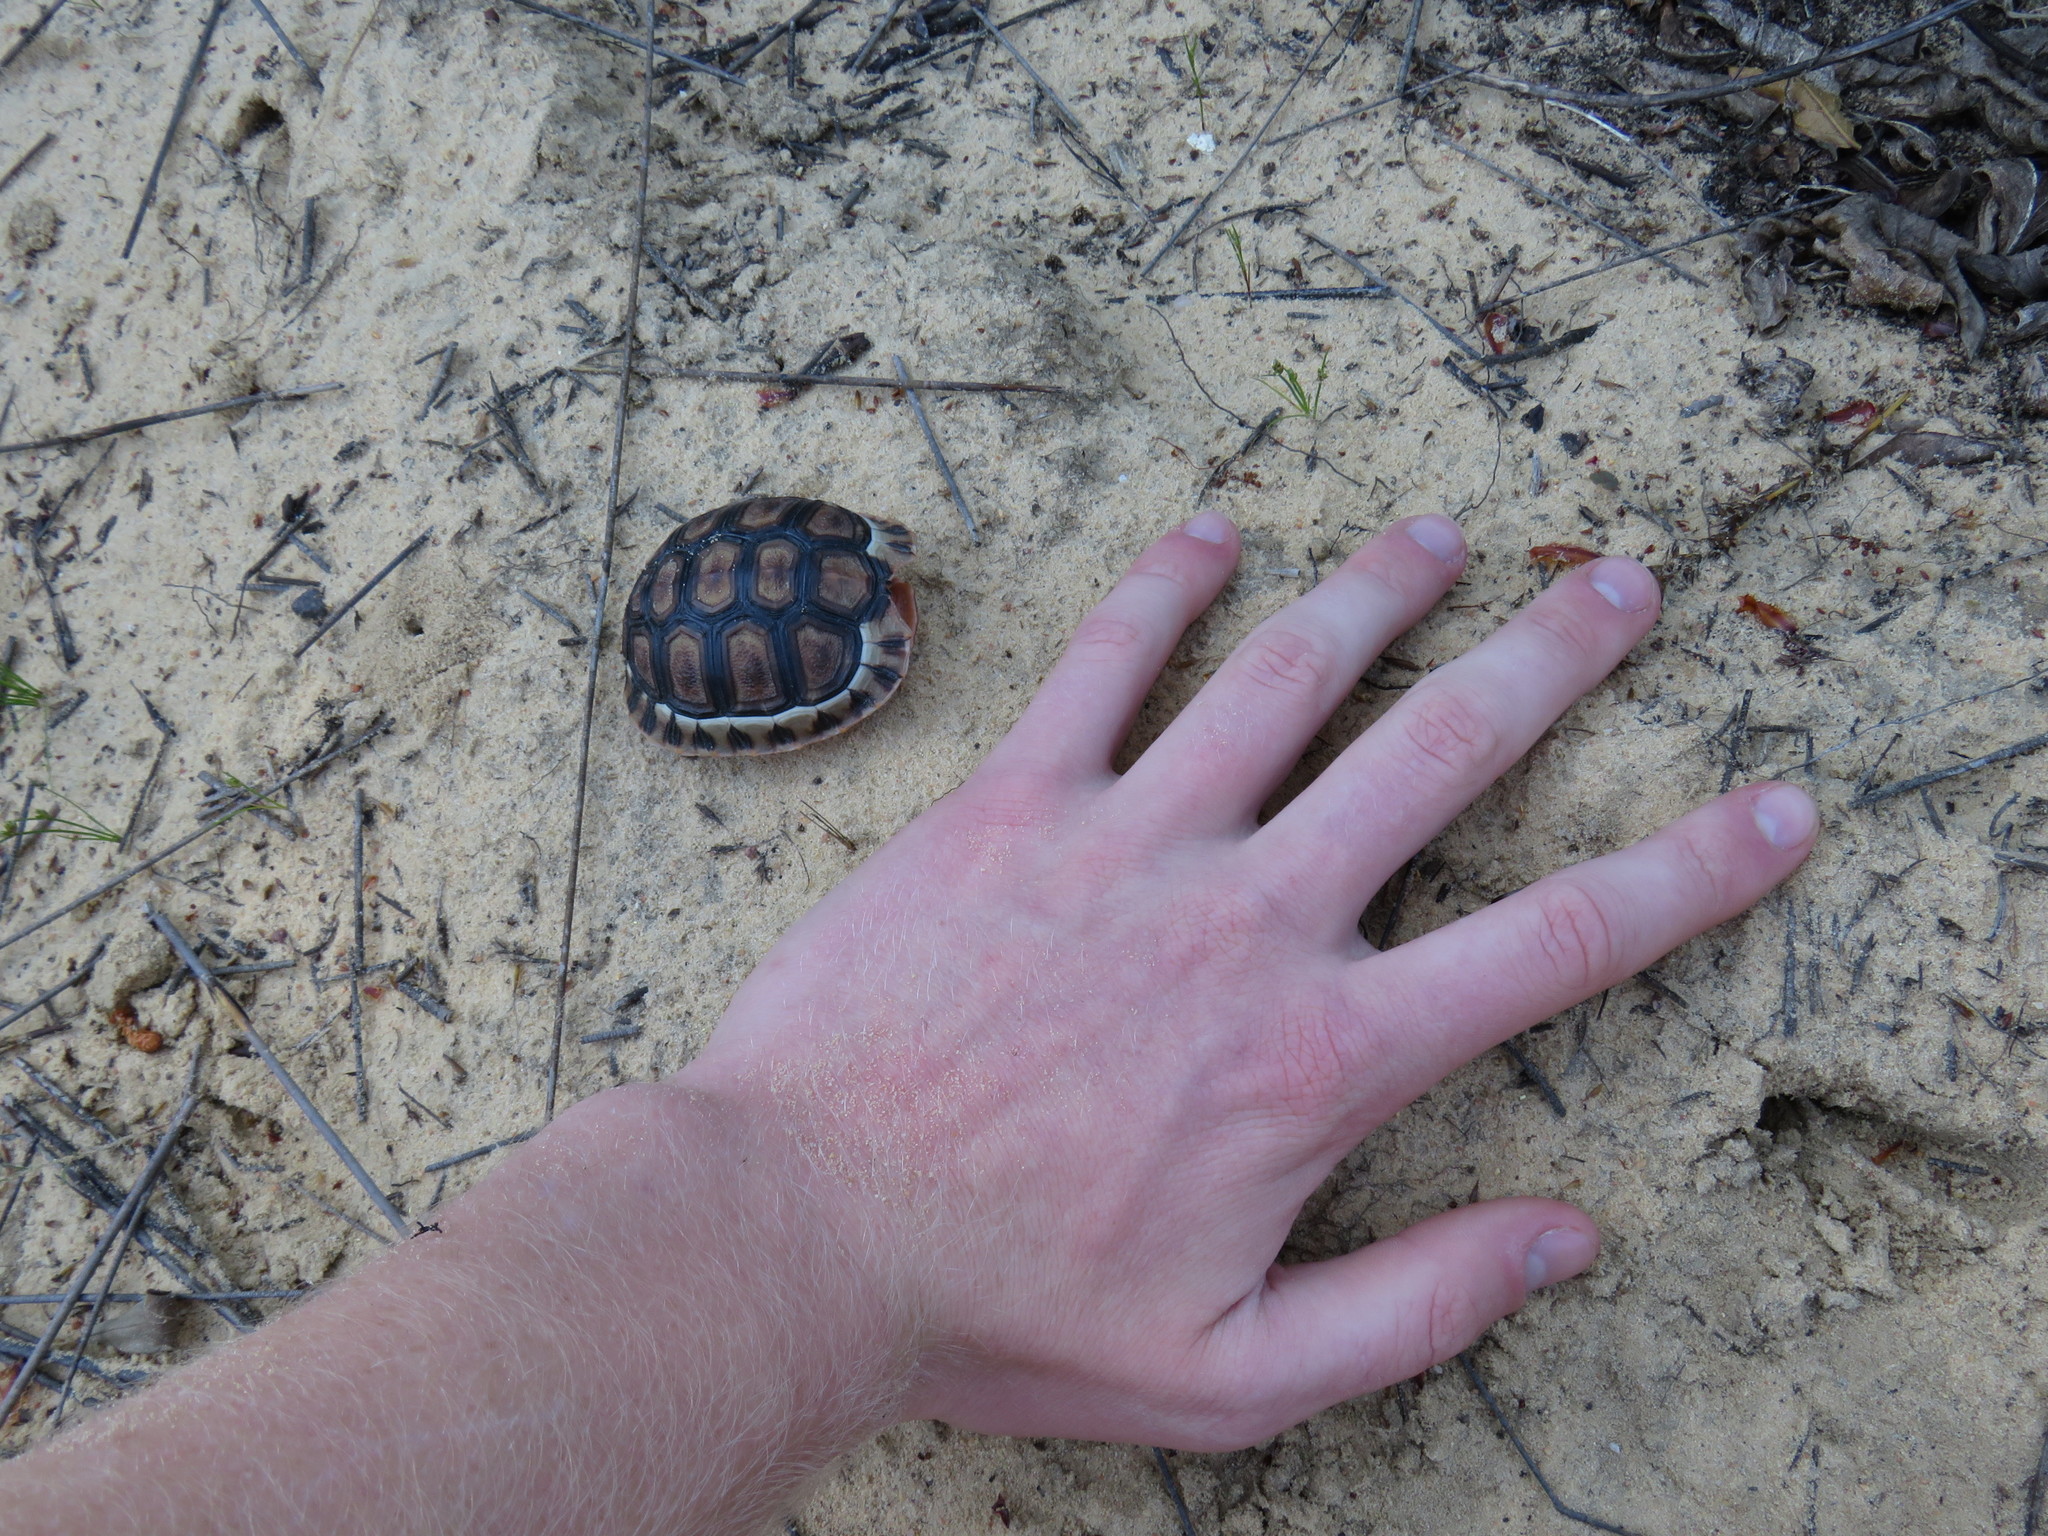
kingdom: Animalia
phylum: Chordata
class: Testudines
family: Testudinidae
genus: Chersina
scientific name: Chersina angulata
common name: South african bowsprit tortoise
